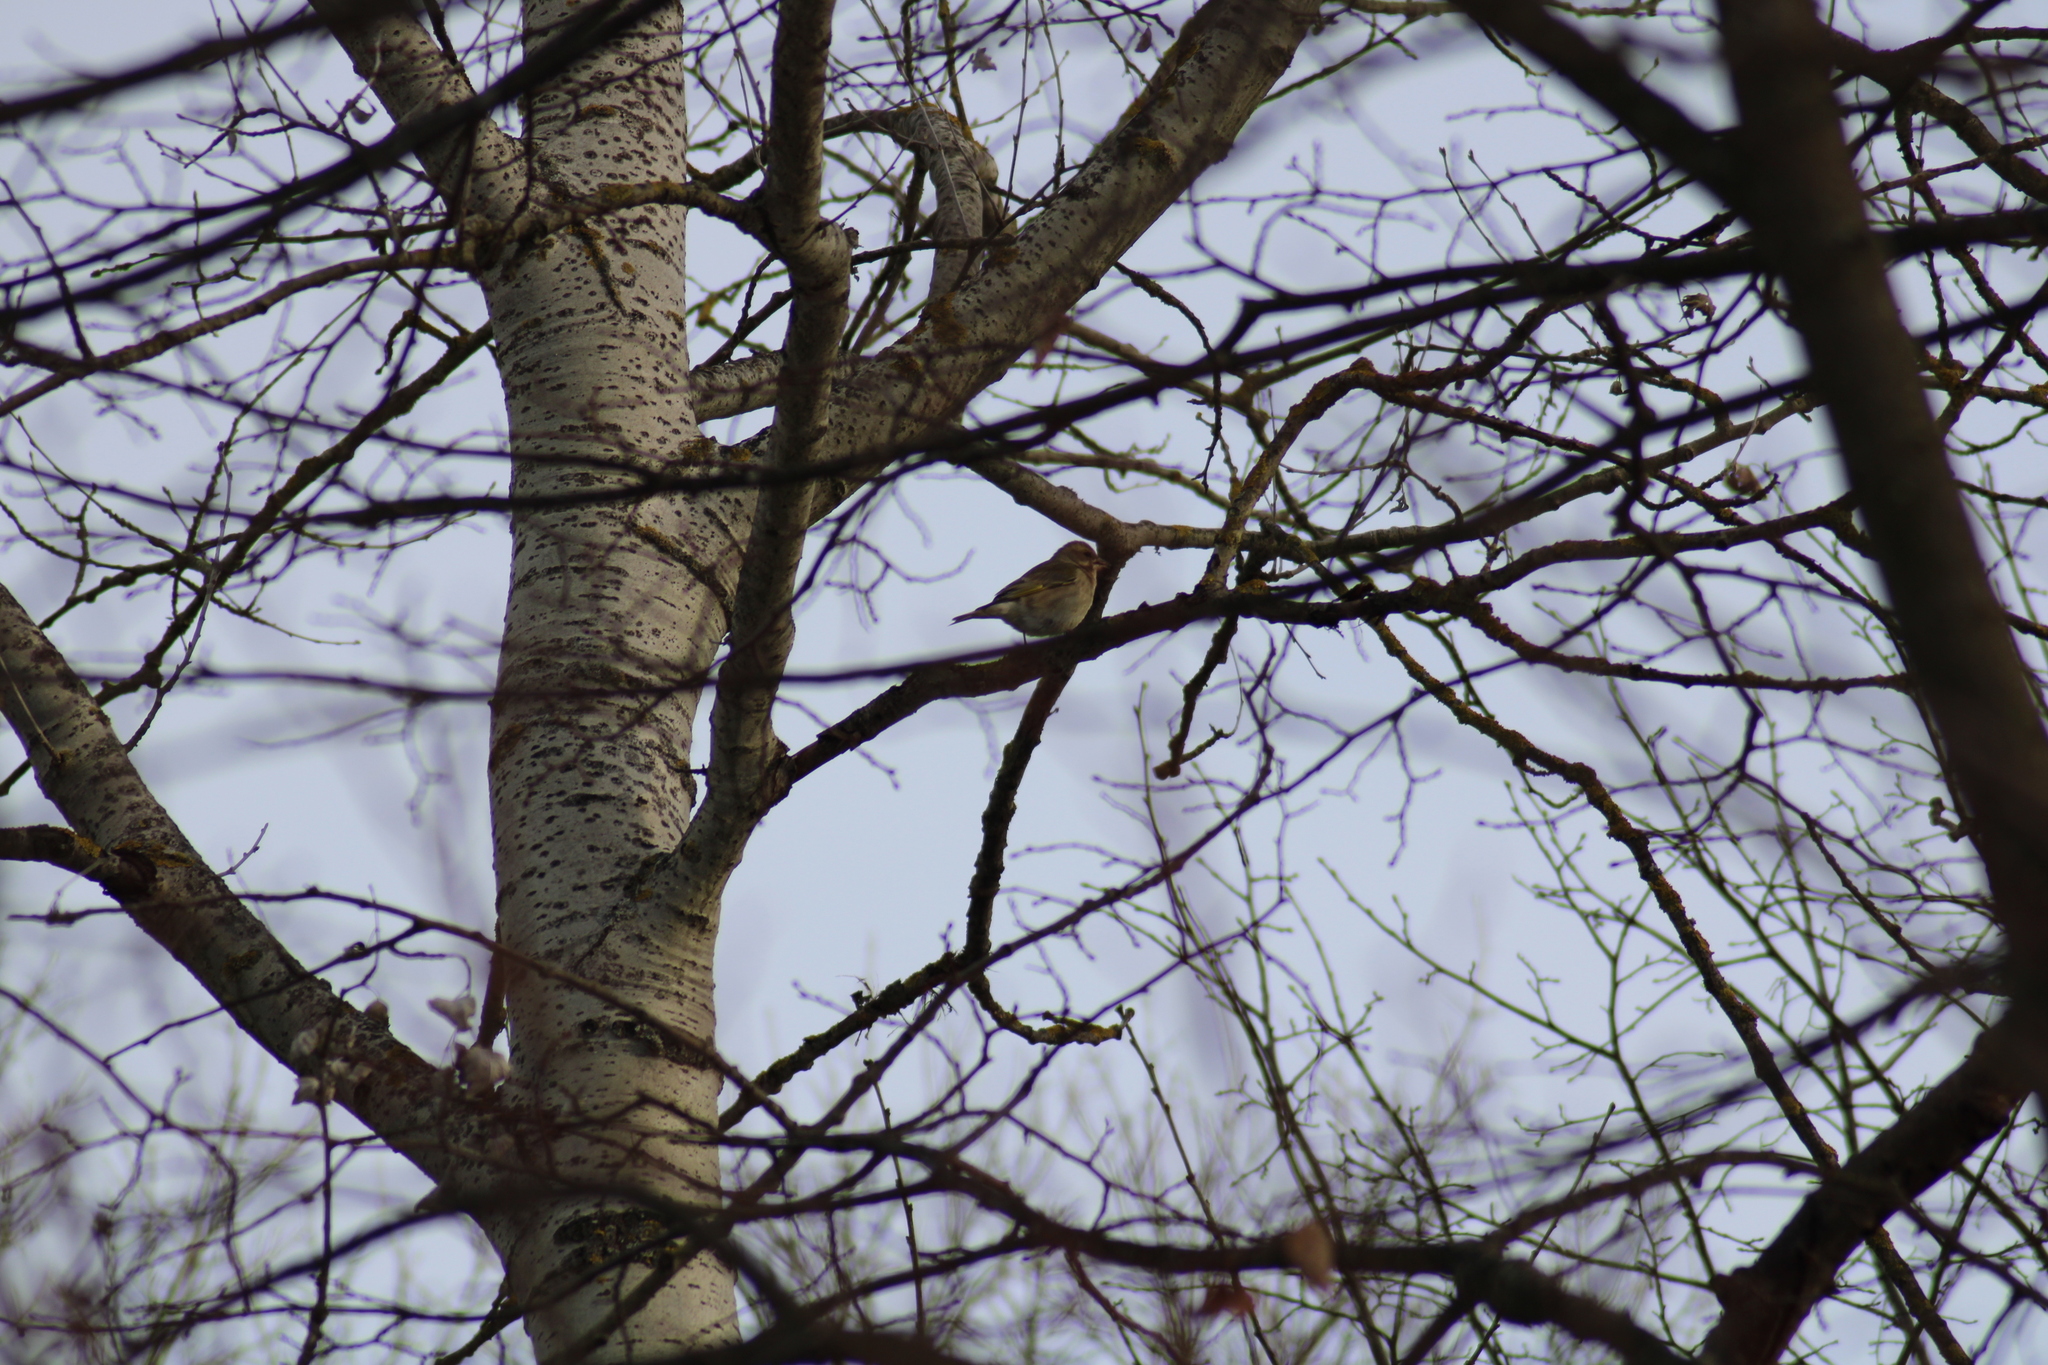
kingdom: Plantae
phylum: Tracheophyta
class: Liliopsida
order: Poales
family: Poaceae
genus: Chloris
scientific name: Chloris chloris
